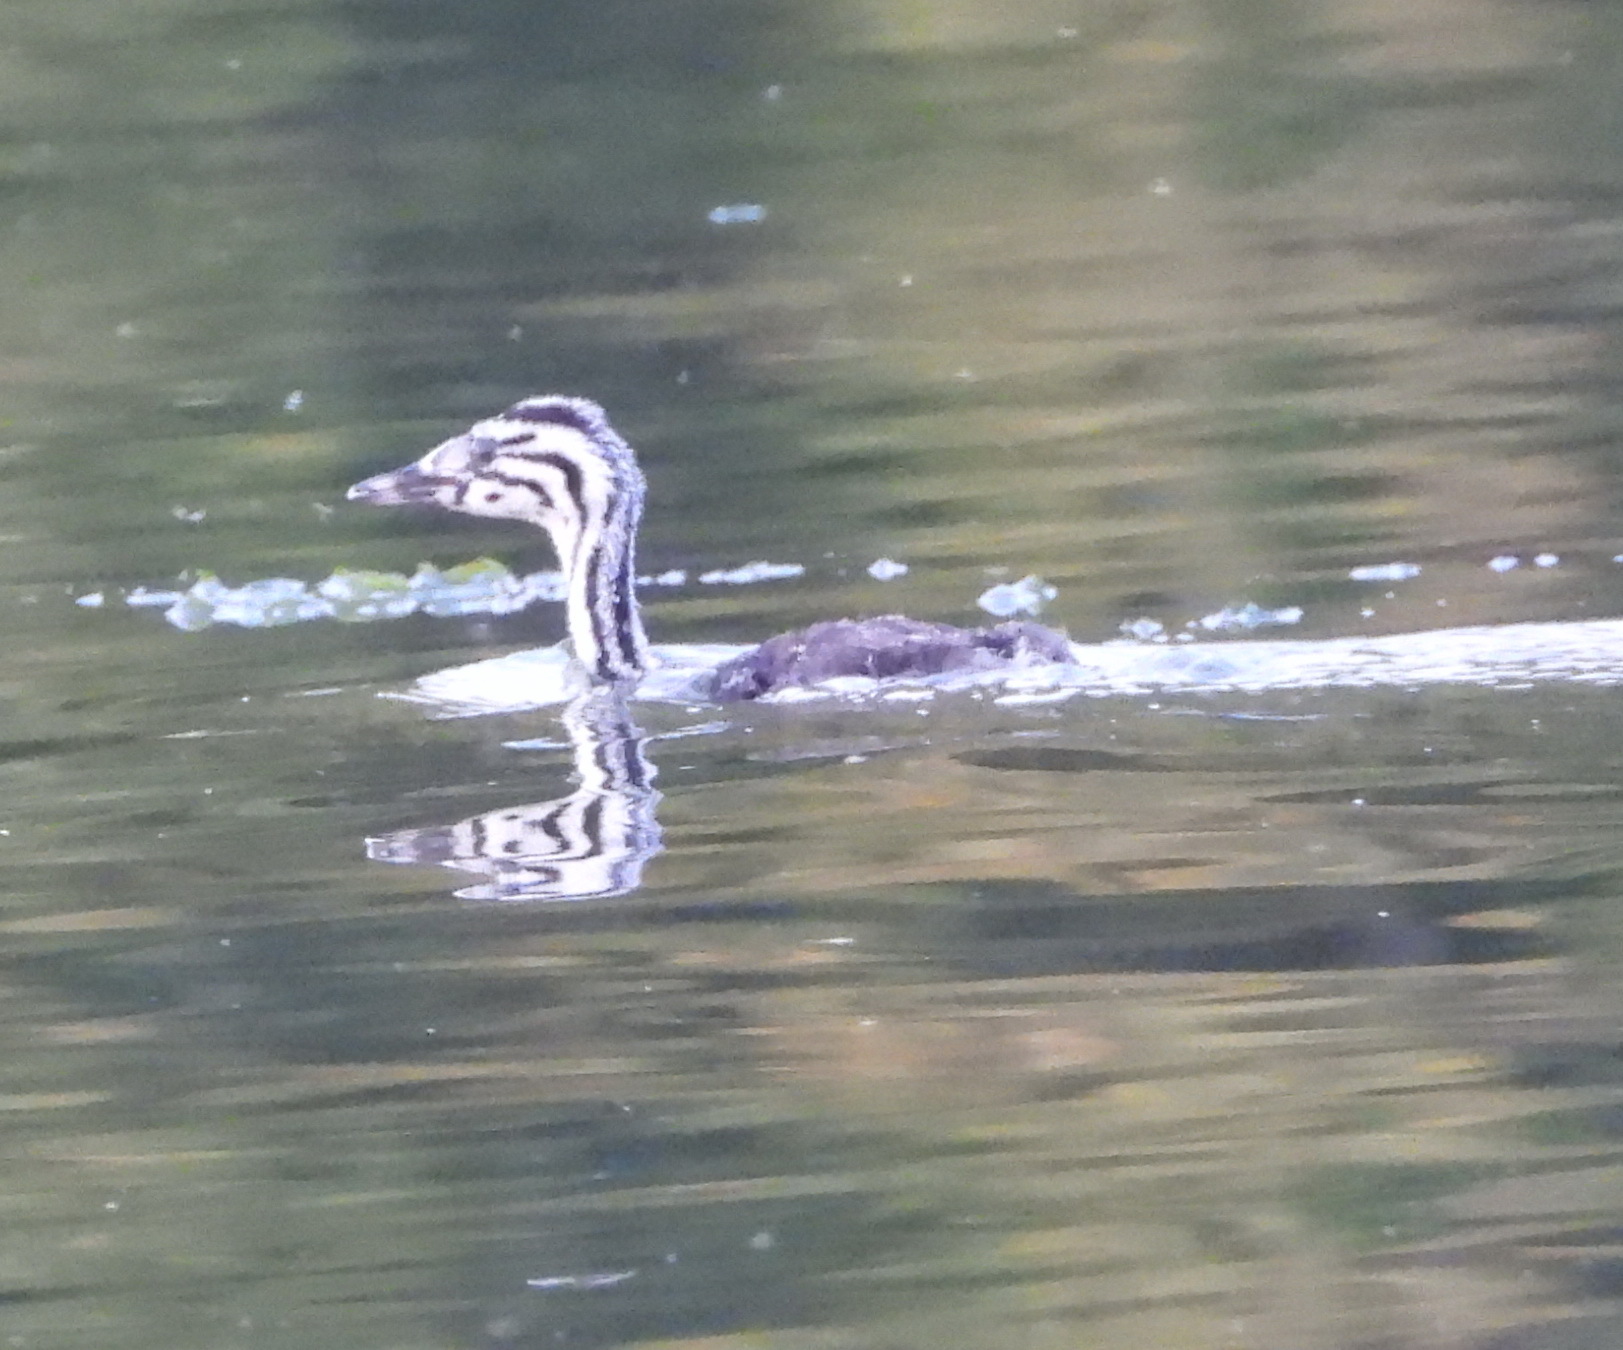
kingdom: Animalia
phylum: Chordata
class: Aves
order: Podicipediformes
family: Podicipedidae
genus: Podiceps
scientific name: Podiceps cristatus
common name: Great crested grebe
